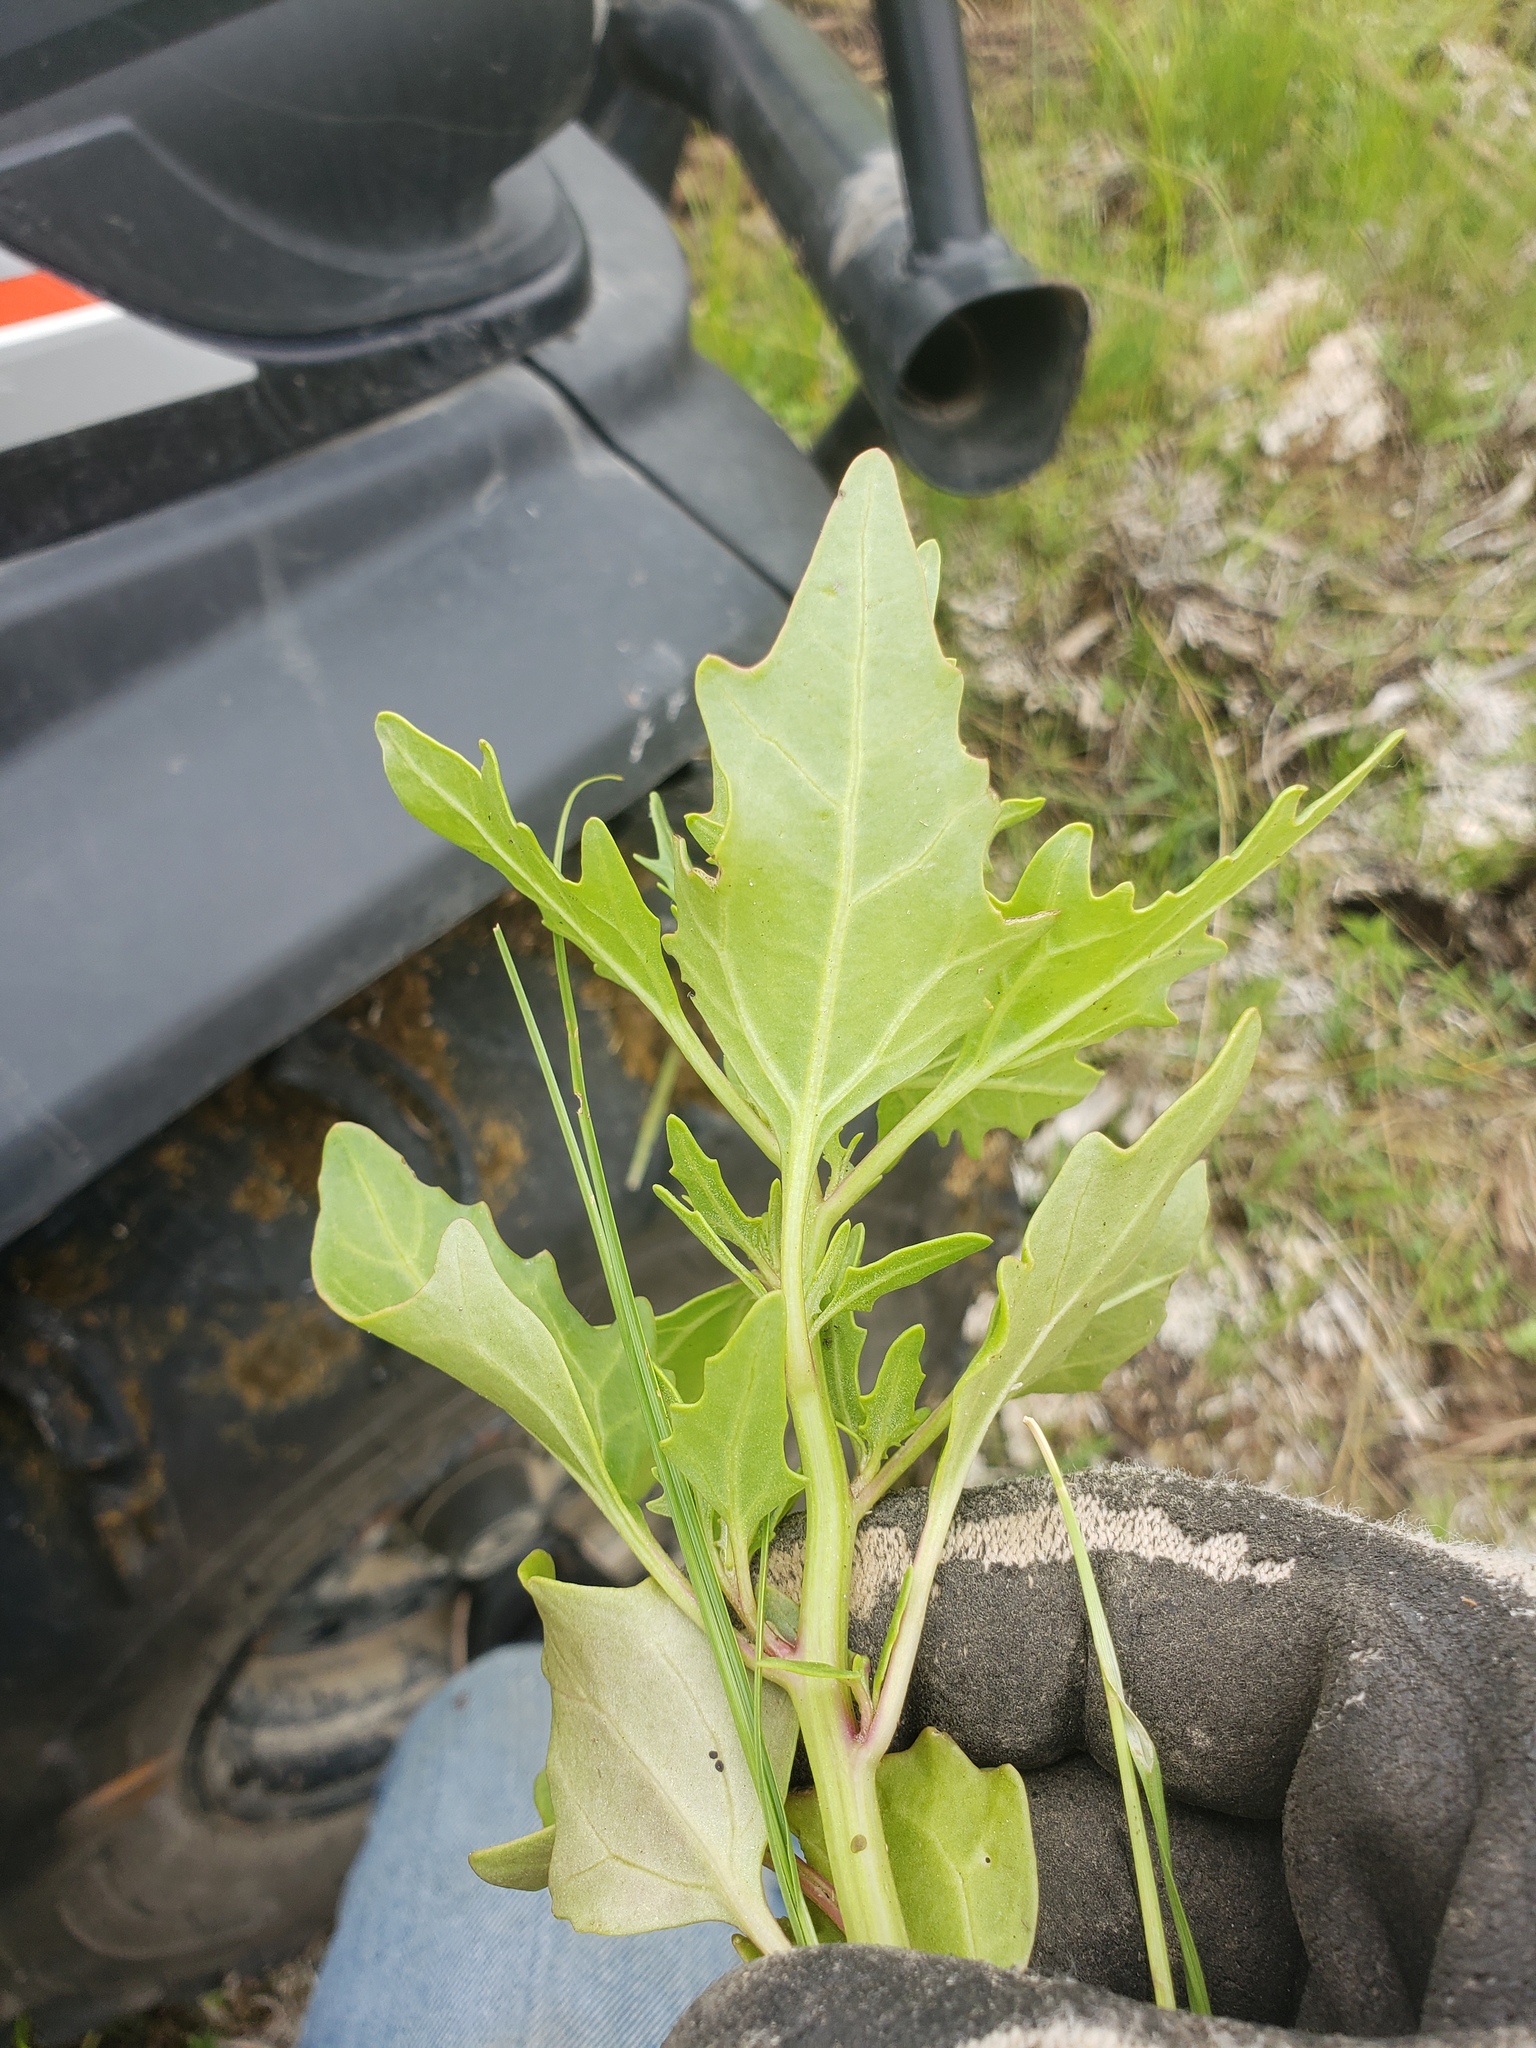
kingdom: Plantae
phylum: Tracheophyta
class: Magnoliopsida
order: Caryophyllales
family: Amaranthaceae
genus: Oxybasis
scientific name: Oxybasis rubra
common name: Red goosefoot
